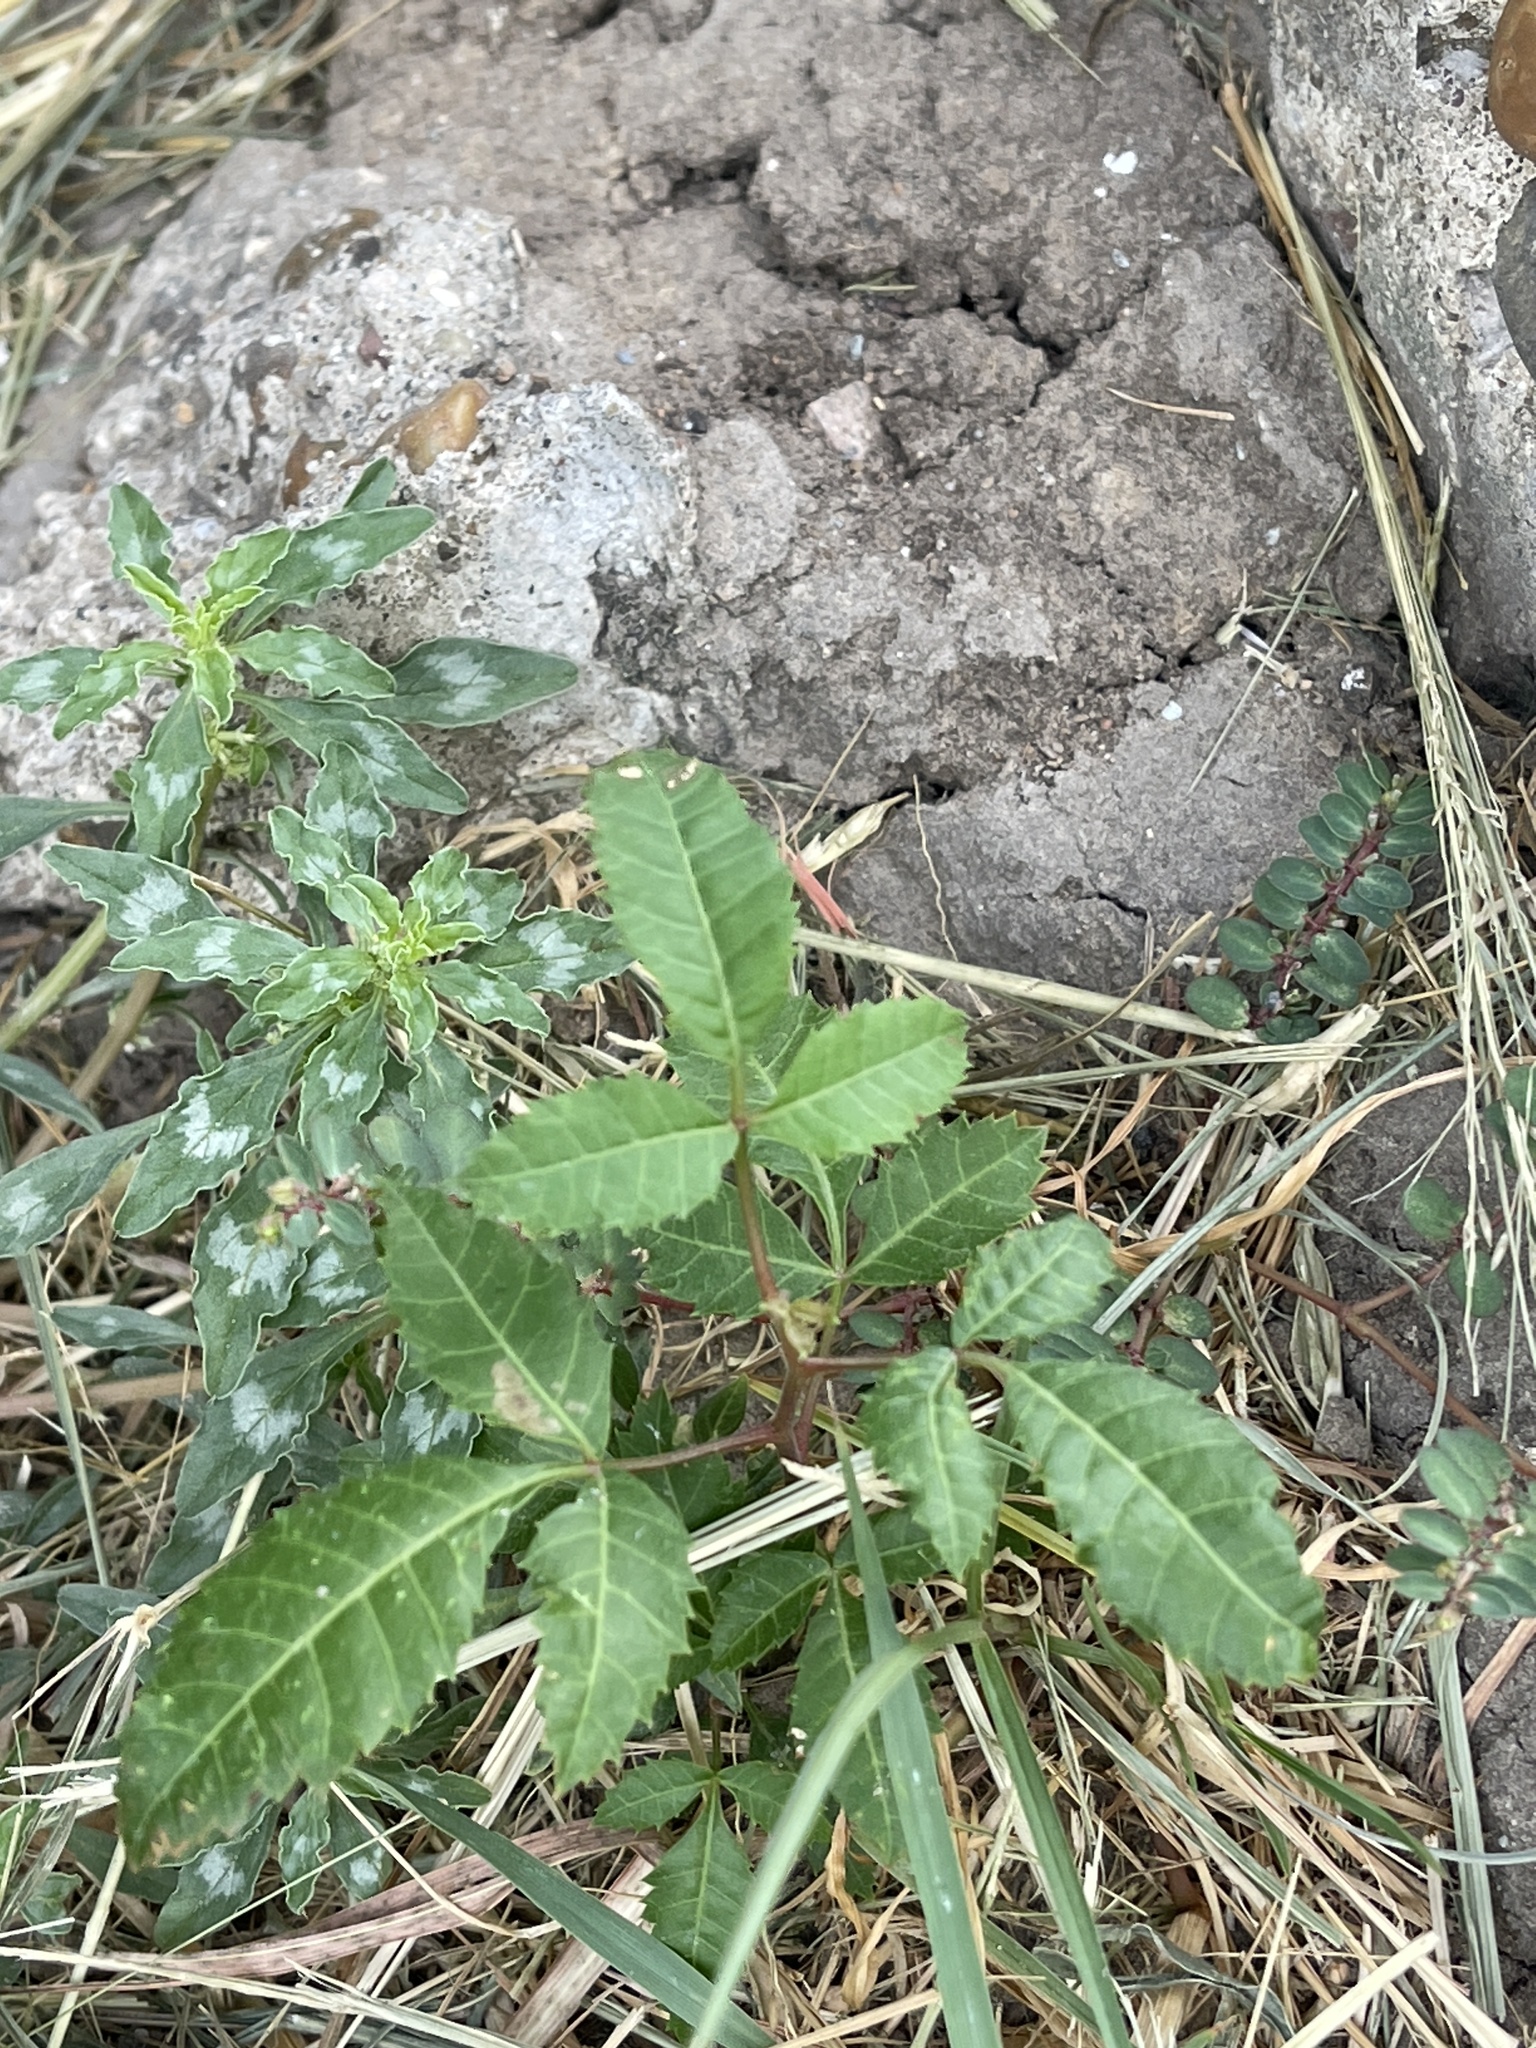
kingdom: Plantae
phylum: Tracheophyta
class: Magnoliopsida
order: Sapindales
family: Anacardiaceae
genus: Schinus
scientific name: Schinus terebinthifolia
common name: Brazilian peppertree
